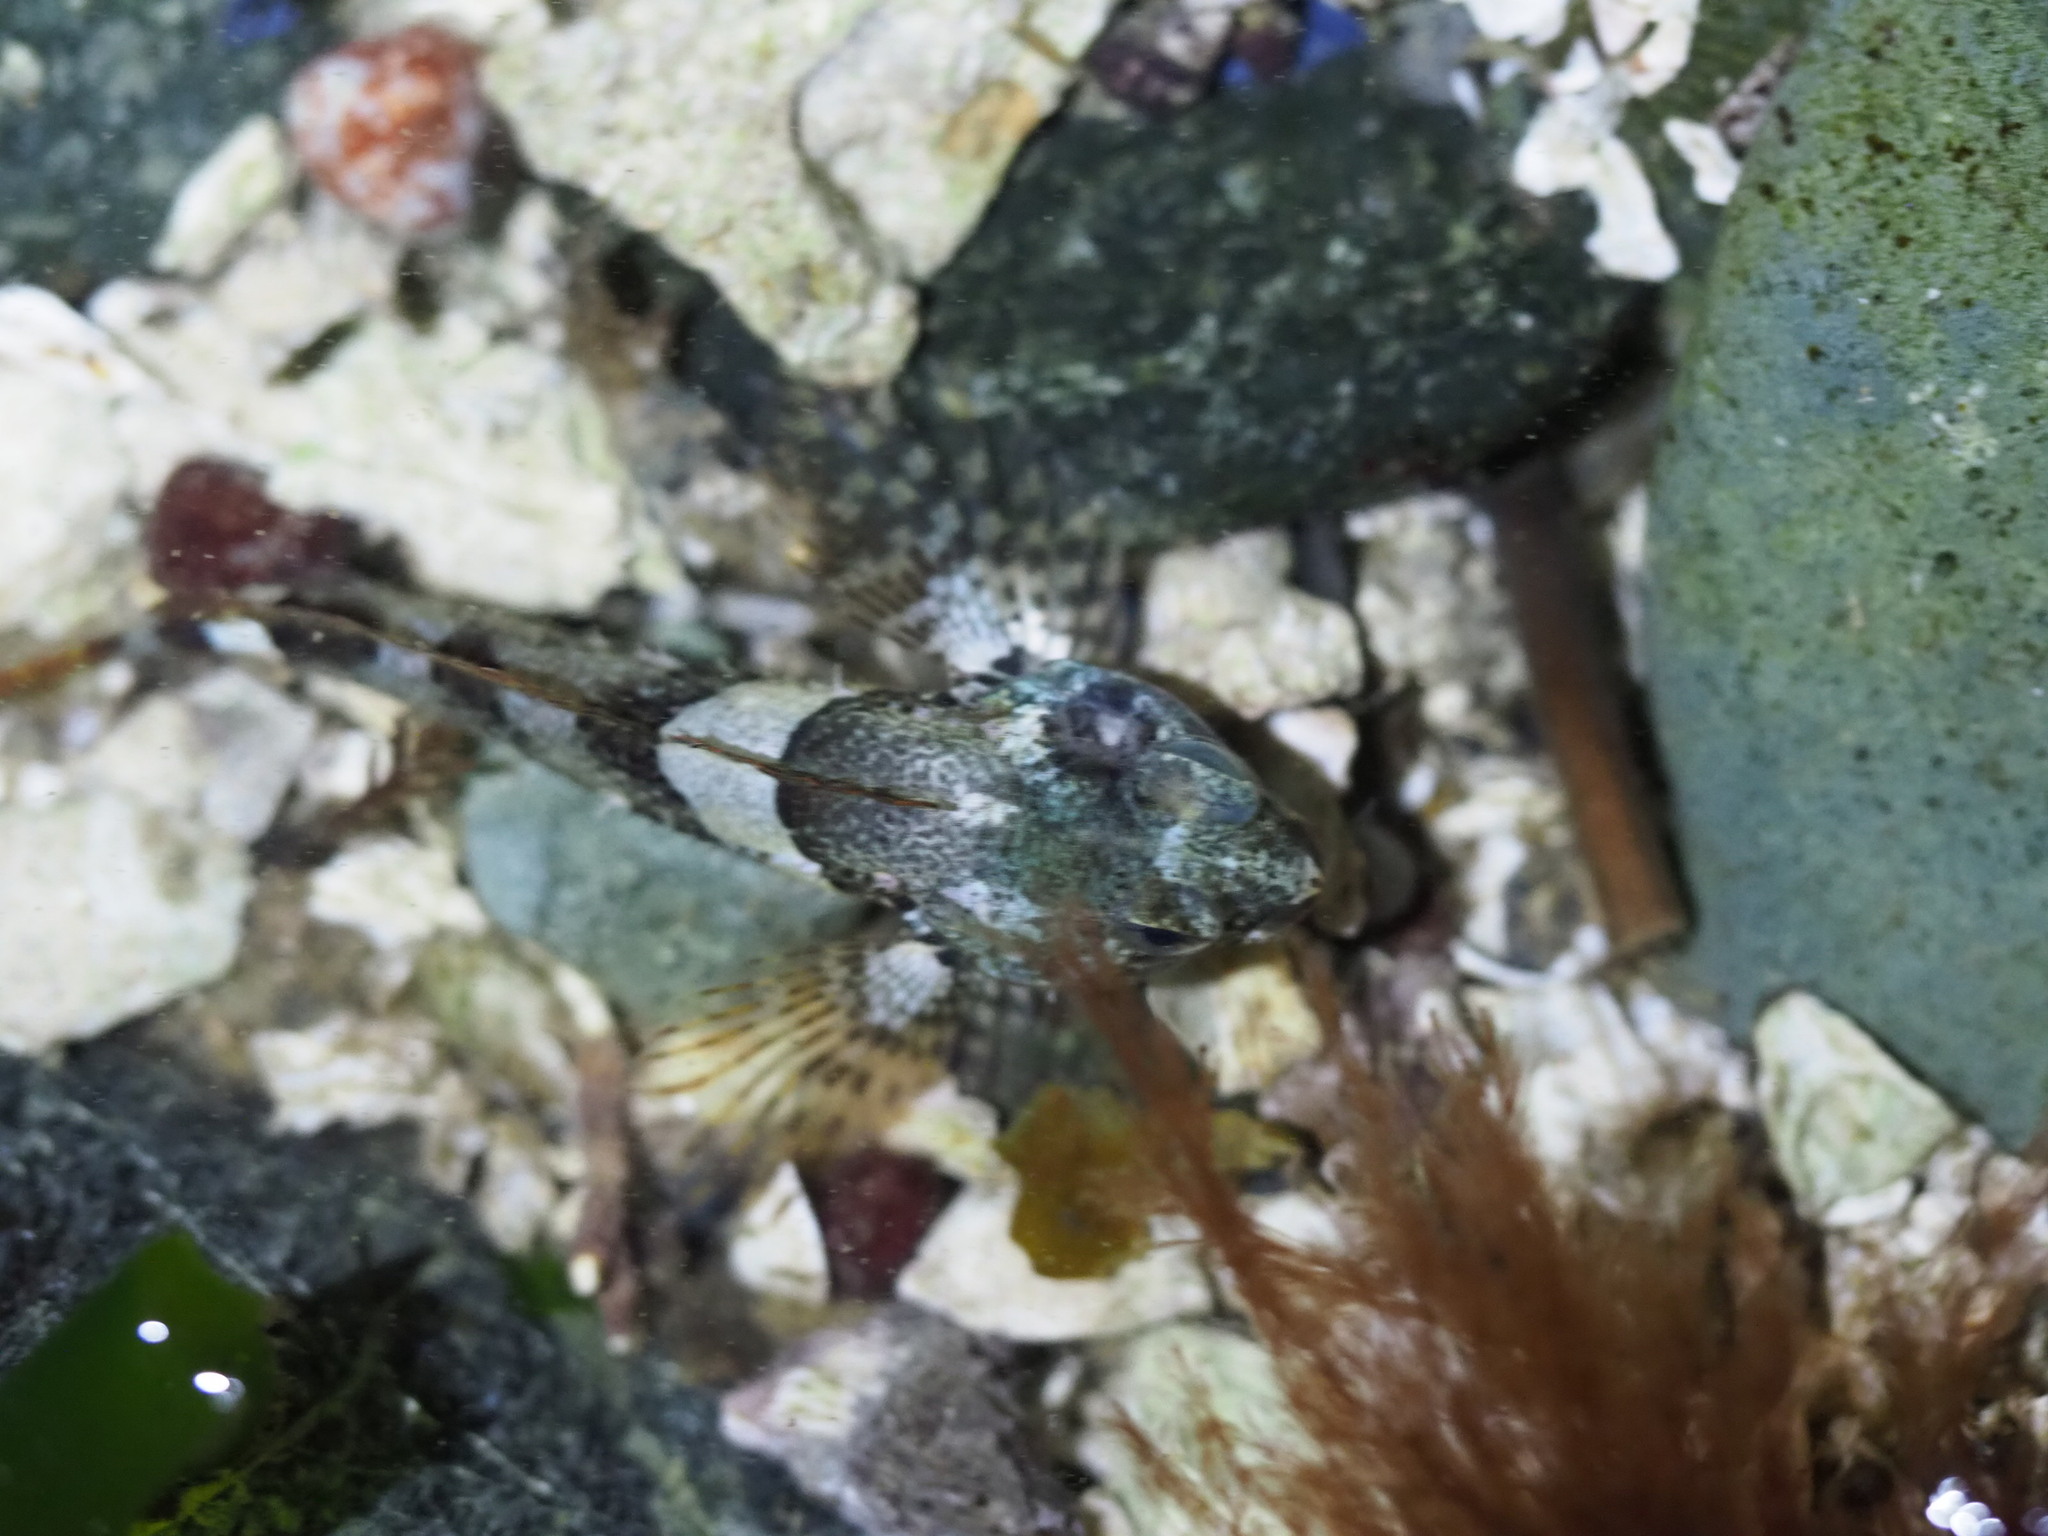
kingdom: Animalia
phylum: Chordata
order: Scorpaeniformes
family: Cottidae
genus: Oligocottus
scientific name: Oligocottus maculosus
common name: Tidepool sculpin
